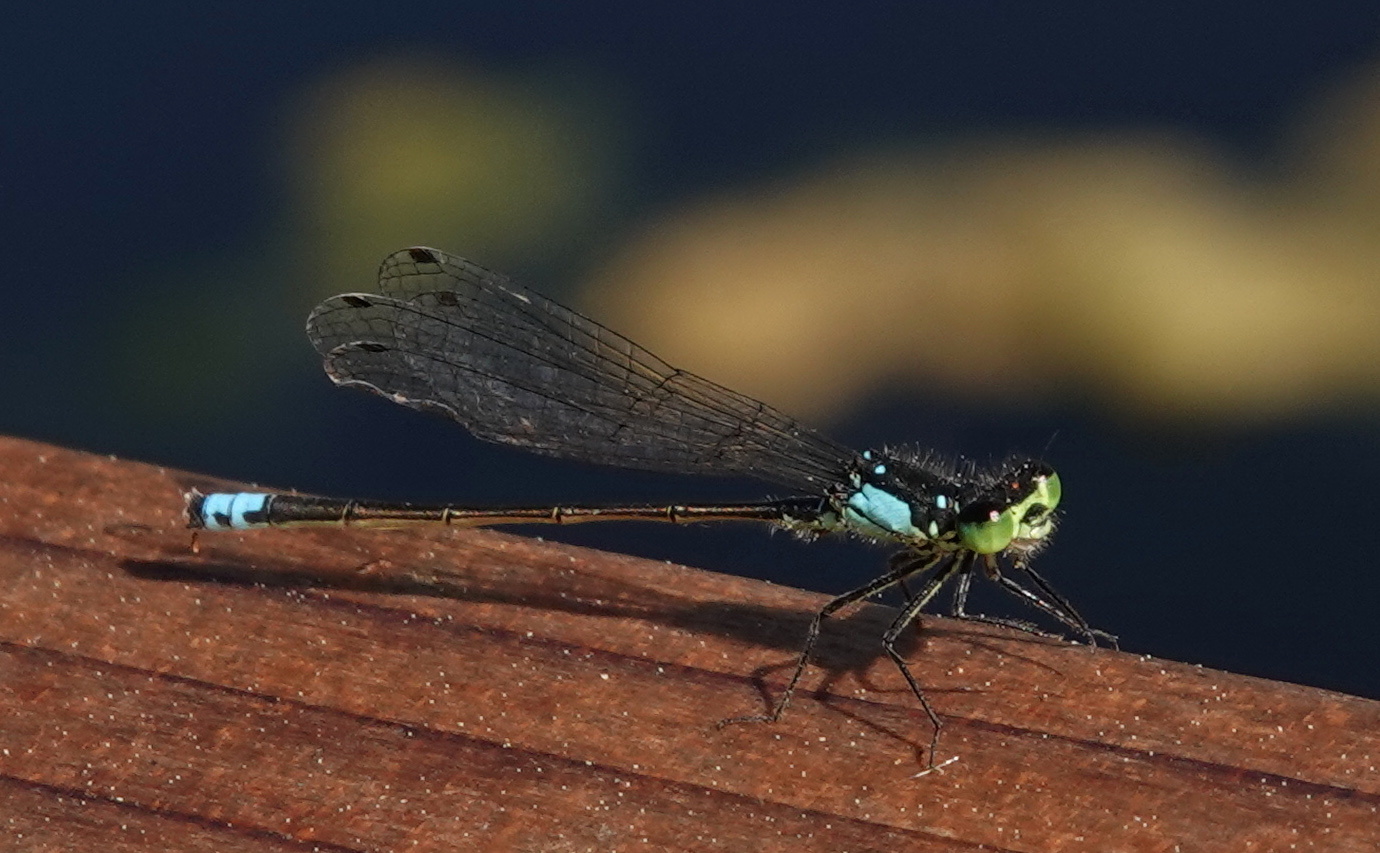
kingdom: Animalia
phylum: Arthropoda
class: Insecta
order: Odonata
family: Coenagrionidae
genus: Ischnura
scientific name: Ischnura cervula
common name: Pacific forktail
